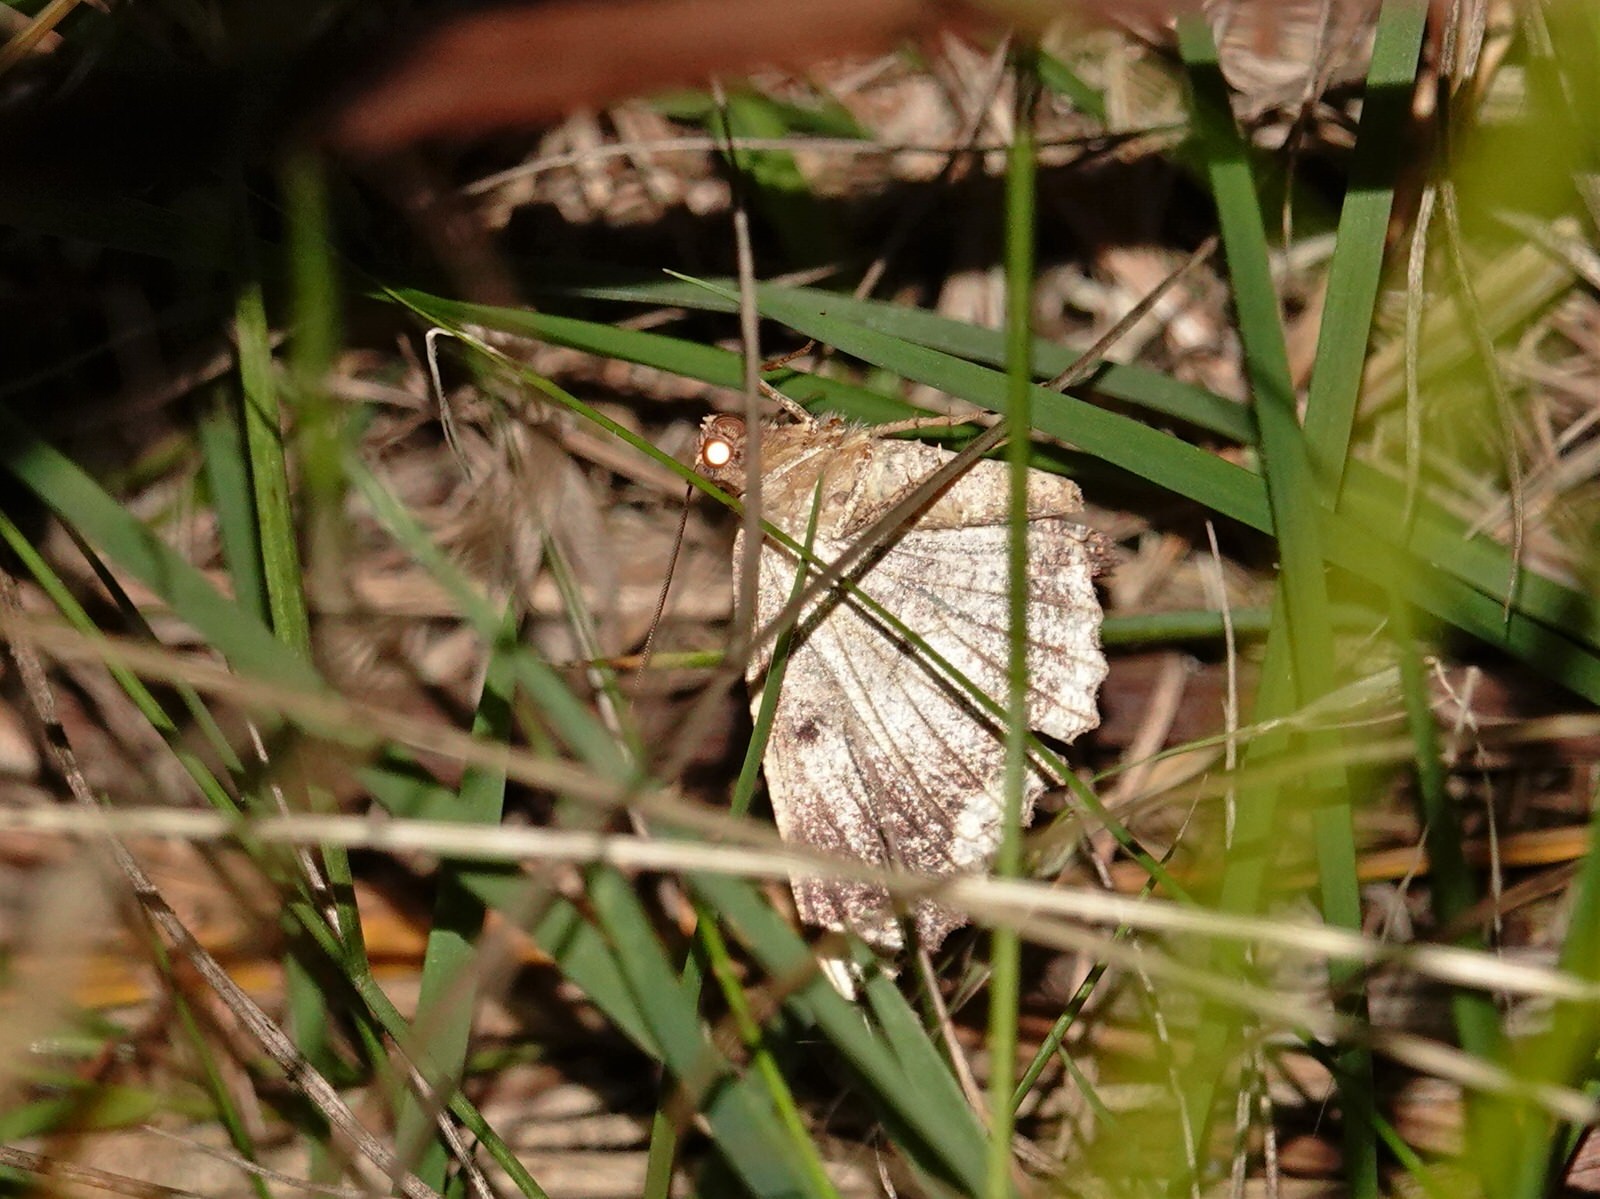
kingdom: Animalia
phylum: Arthropoda
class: Insecta
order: Lepidoptera
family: Geometridae
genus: Gellonia
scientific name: Gellonia dejectaria
